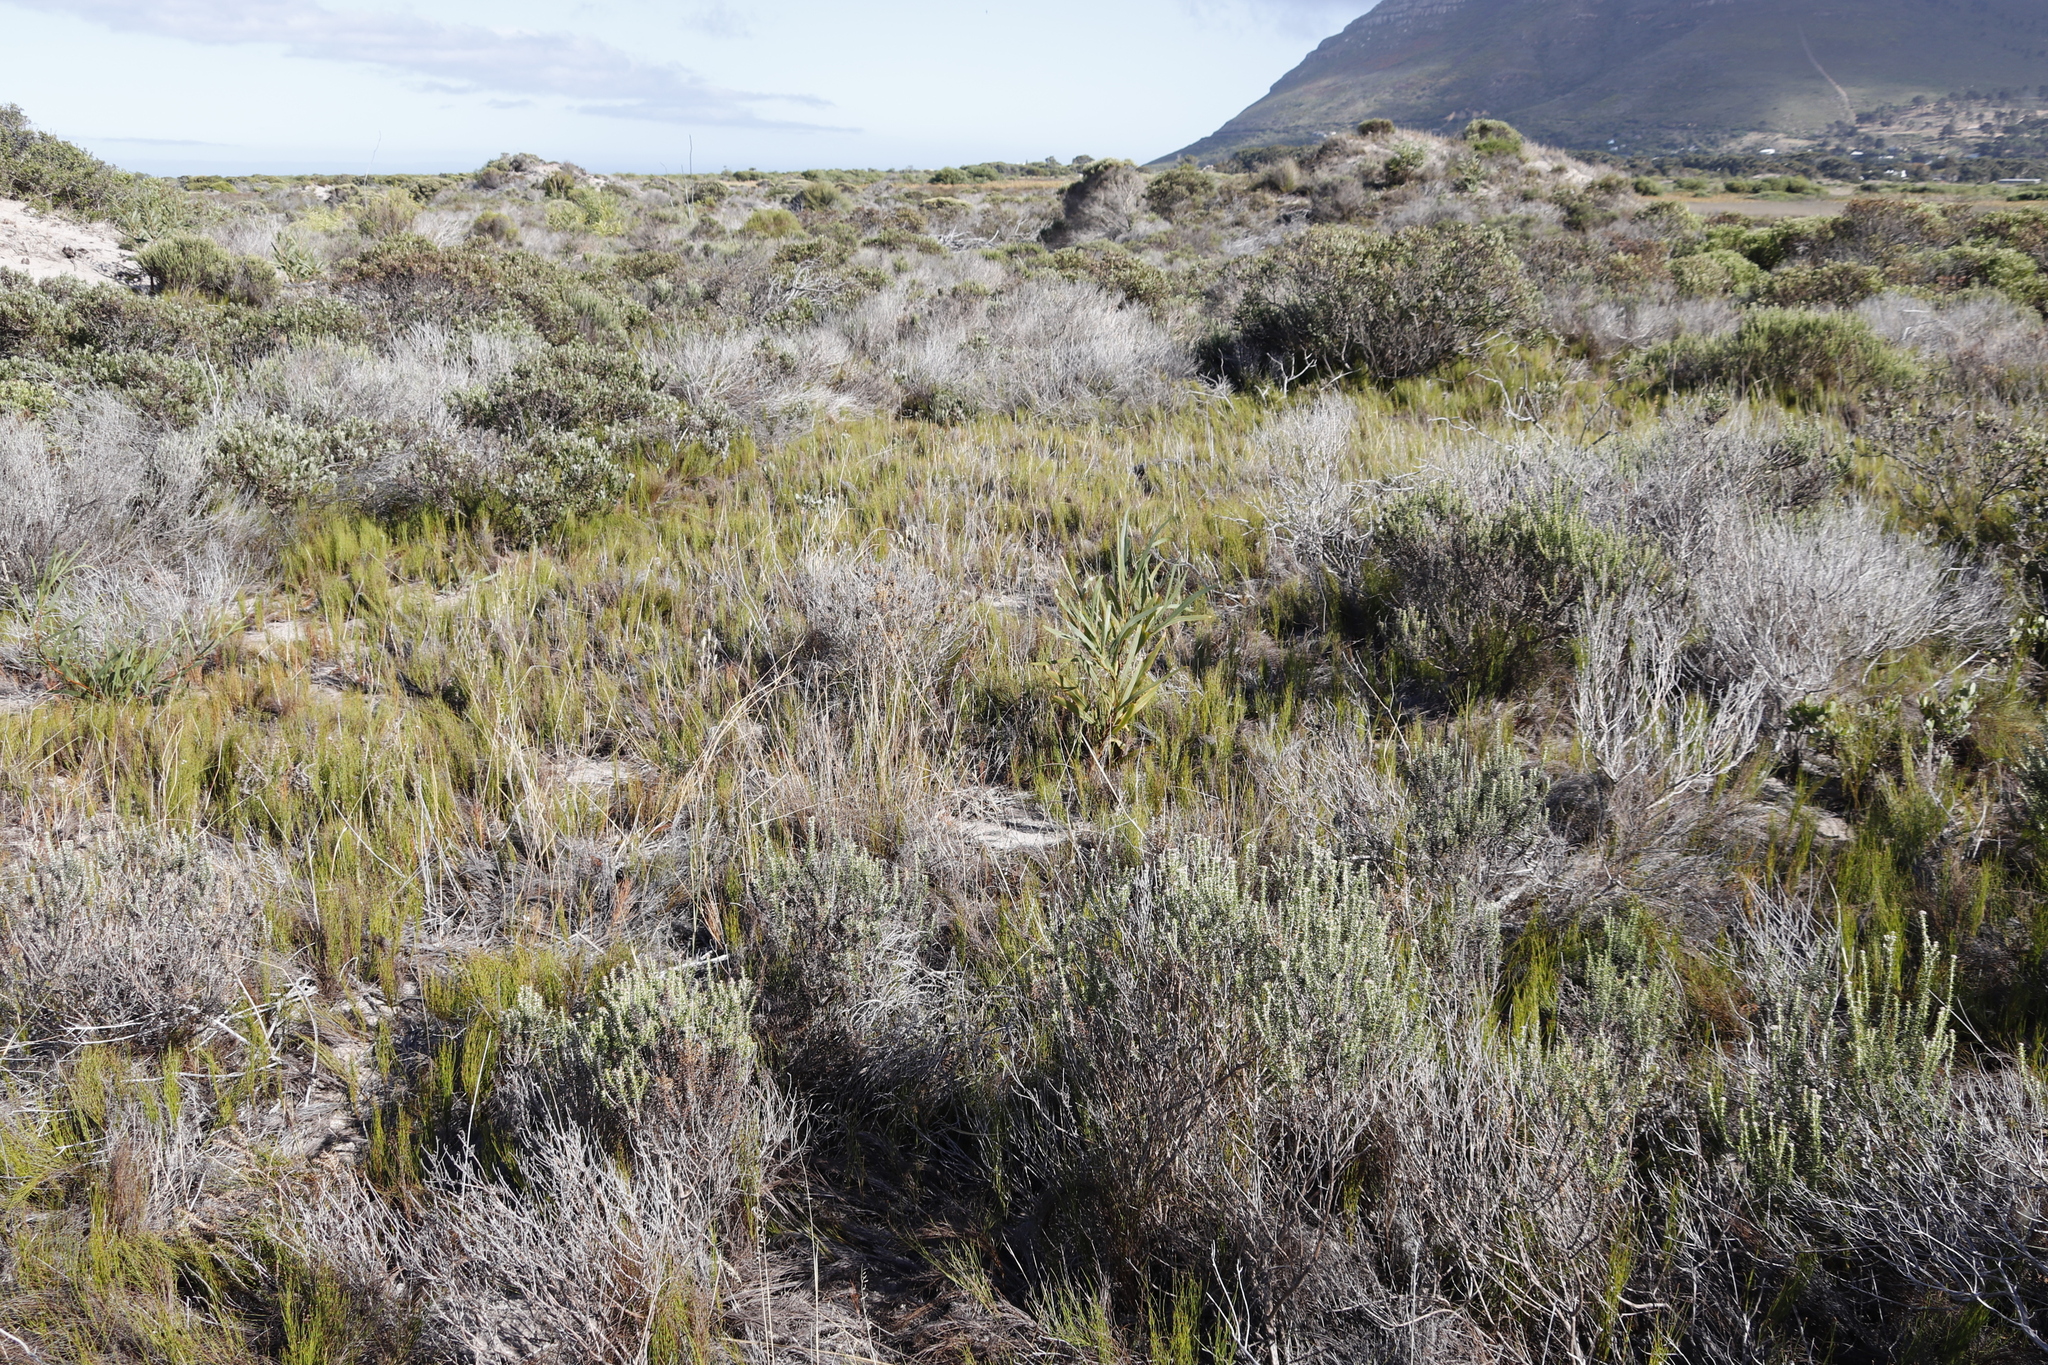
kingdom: Plantae
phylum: Tracheophyta
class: Liliopsida
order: Poales
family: Restionaceae
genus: Restio
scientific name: Restio eleocharis
